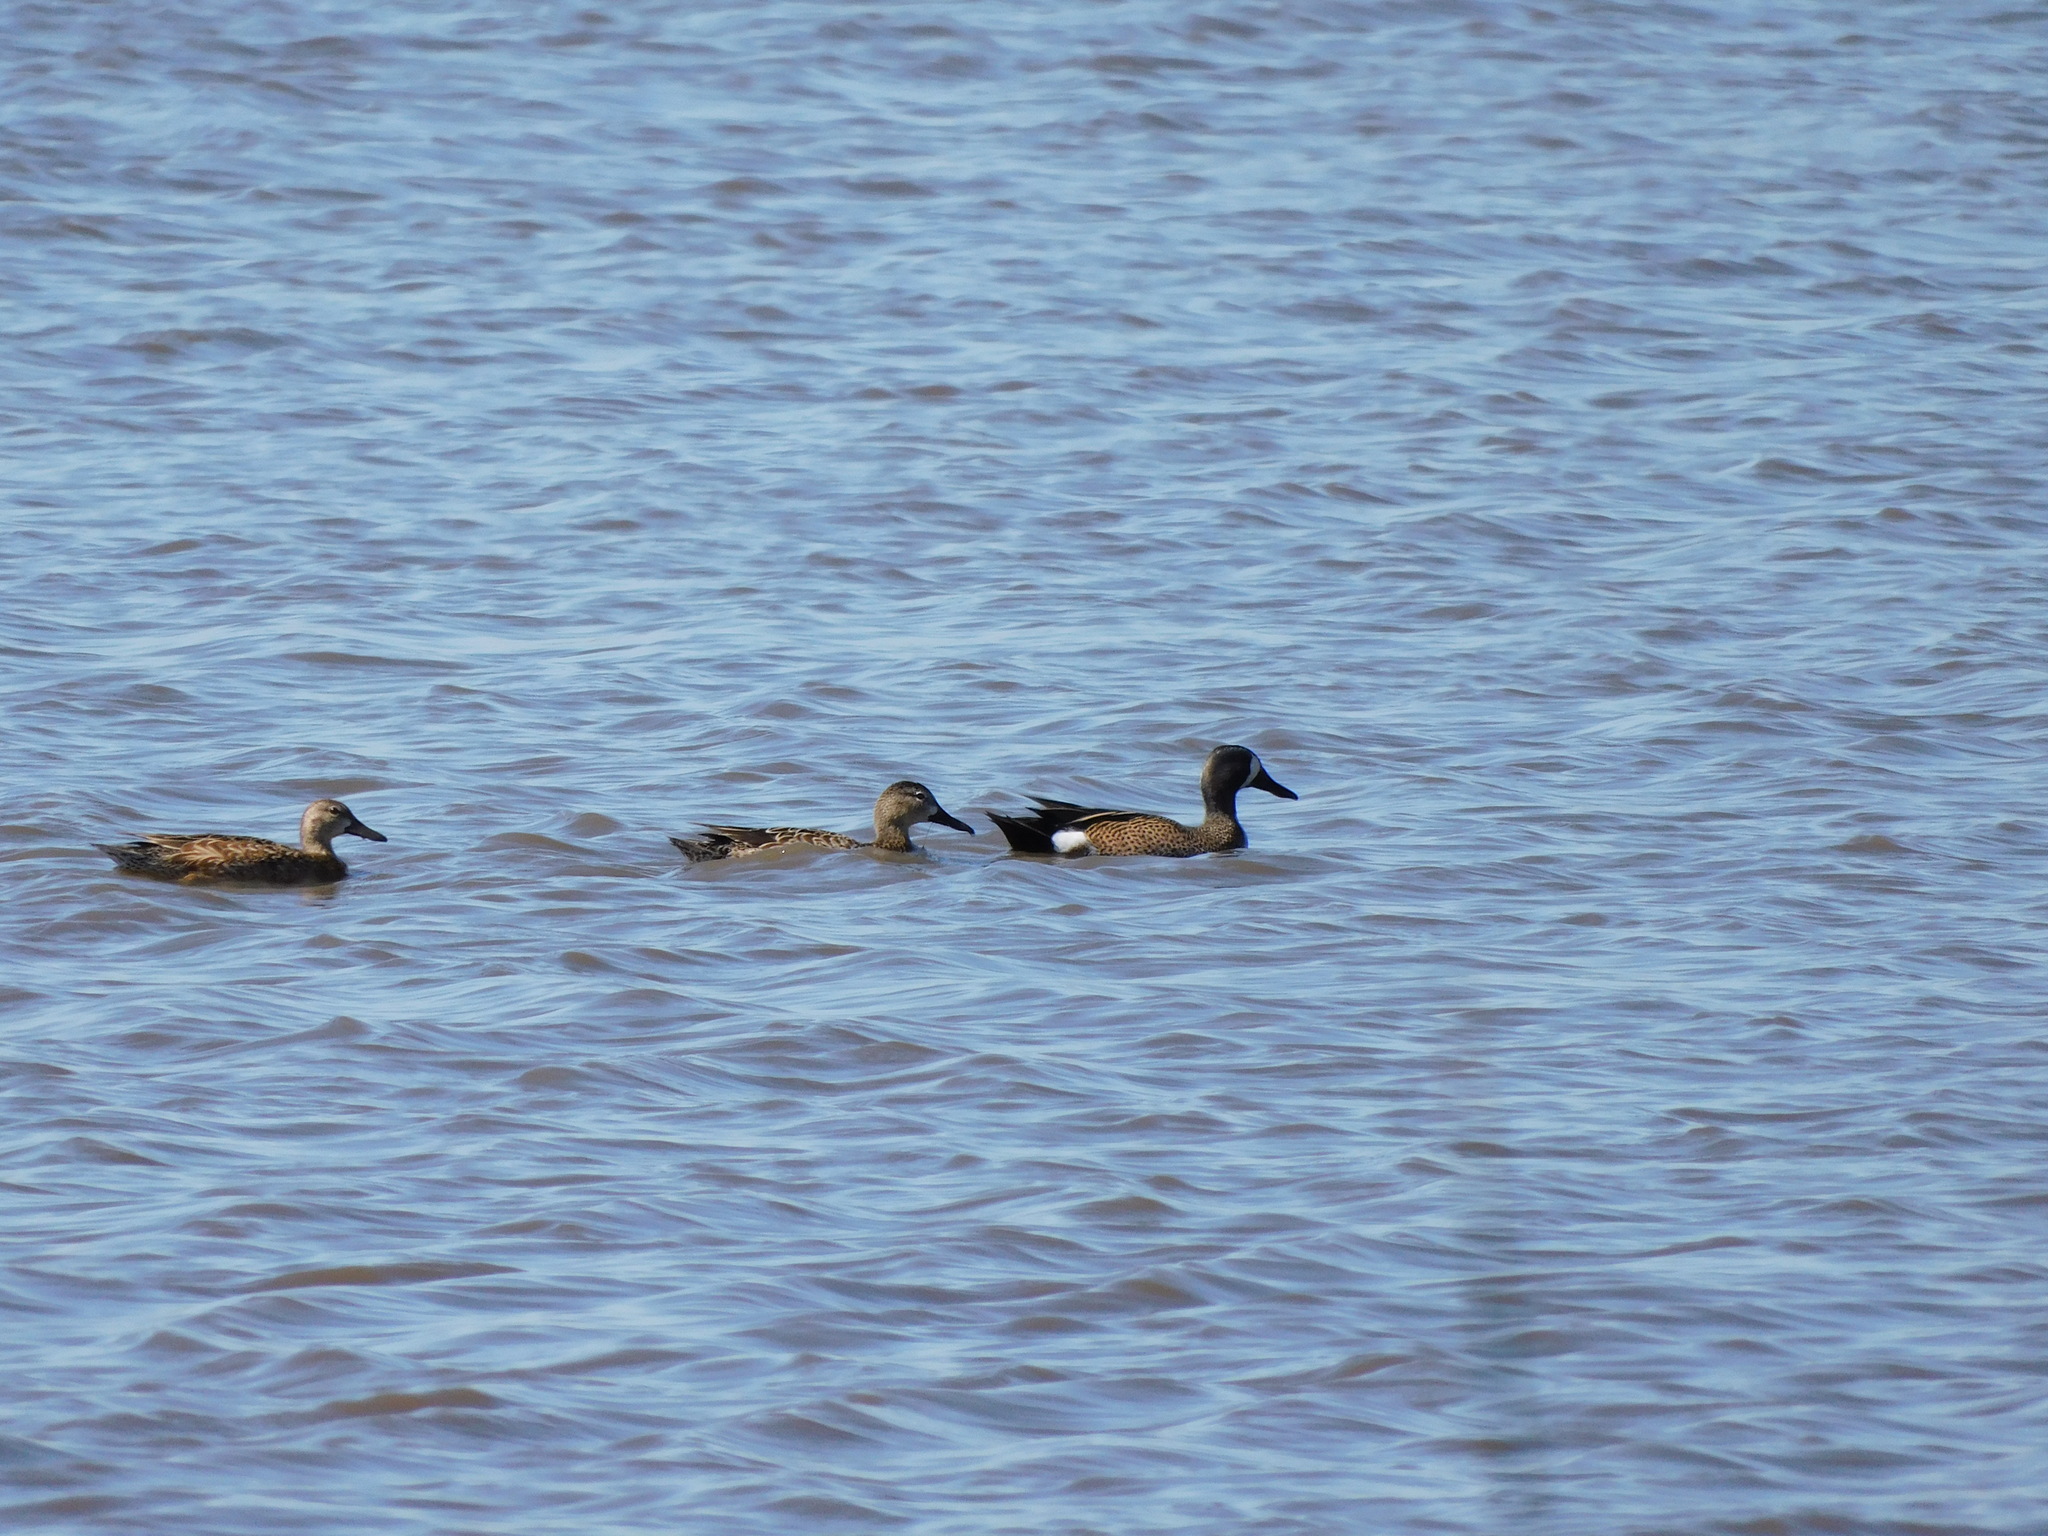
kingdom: Animalia
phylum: Chordata
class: Aves
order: Anseriformes
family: Anatidae
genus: Spatula
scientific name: Spatula discors
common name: Blue-winged teal
